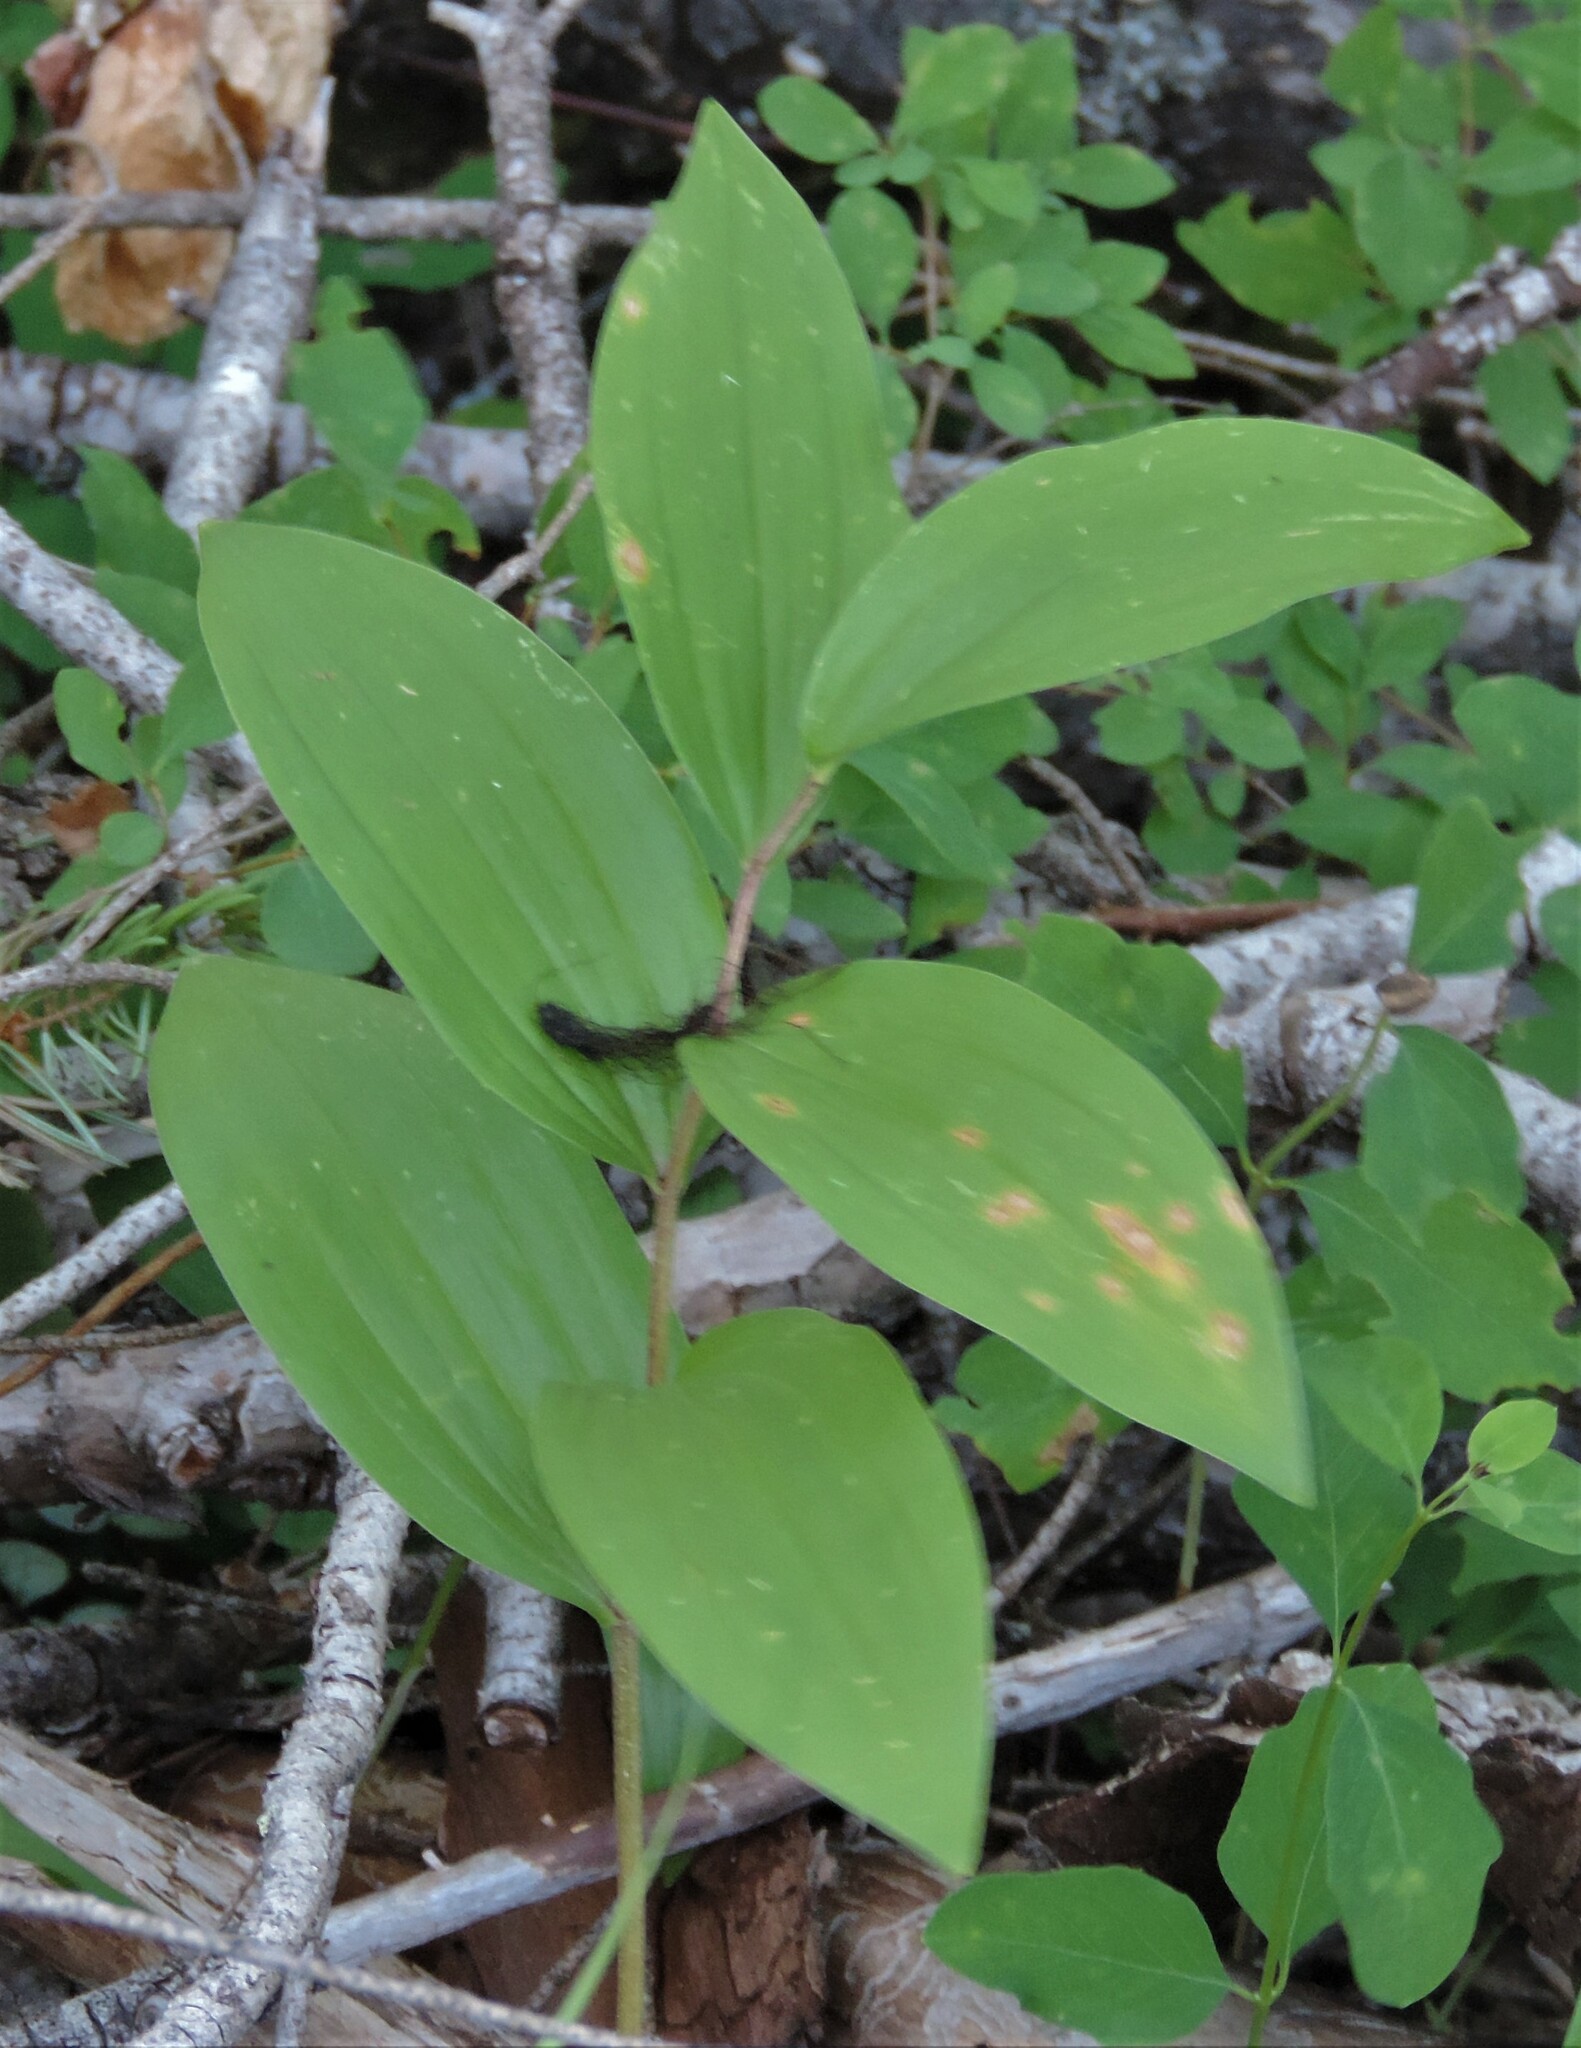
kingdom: Plantae
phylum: Tracheophyta
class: Liliopsida
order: Asparagales
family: Asparagaceae
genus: Maianthemum
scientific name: Maianthemum racemosum
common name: False spikenard
